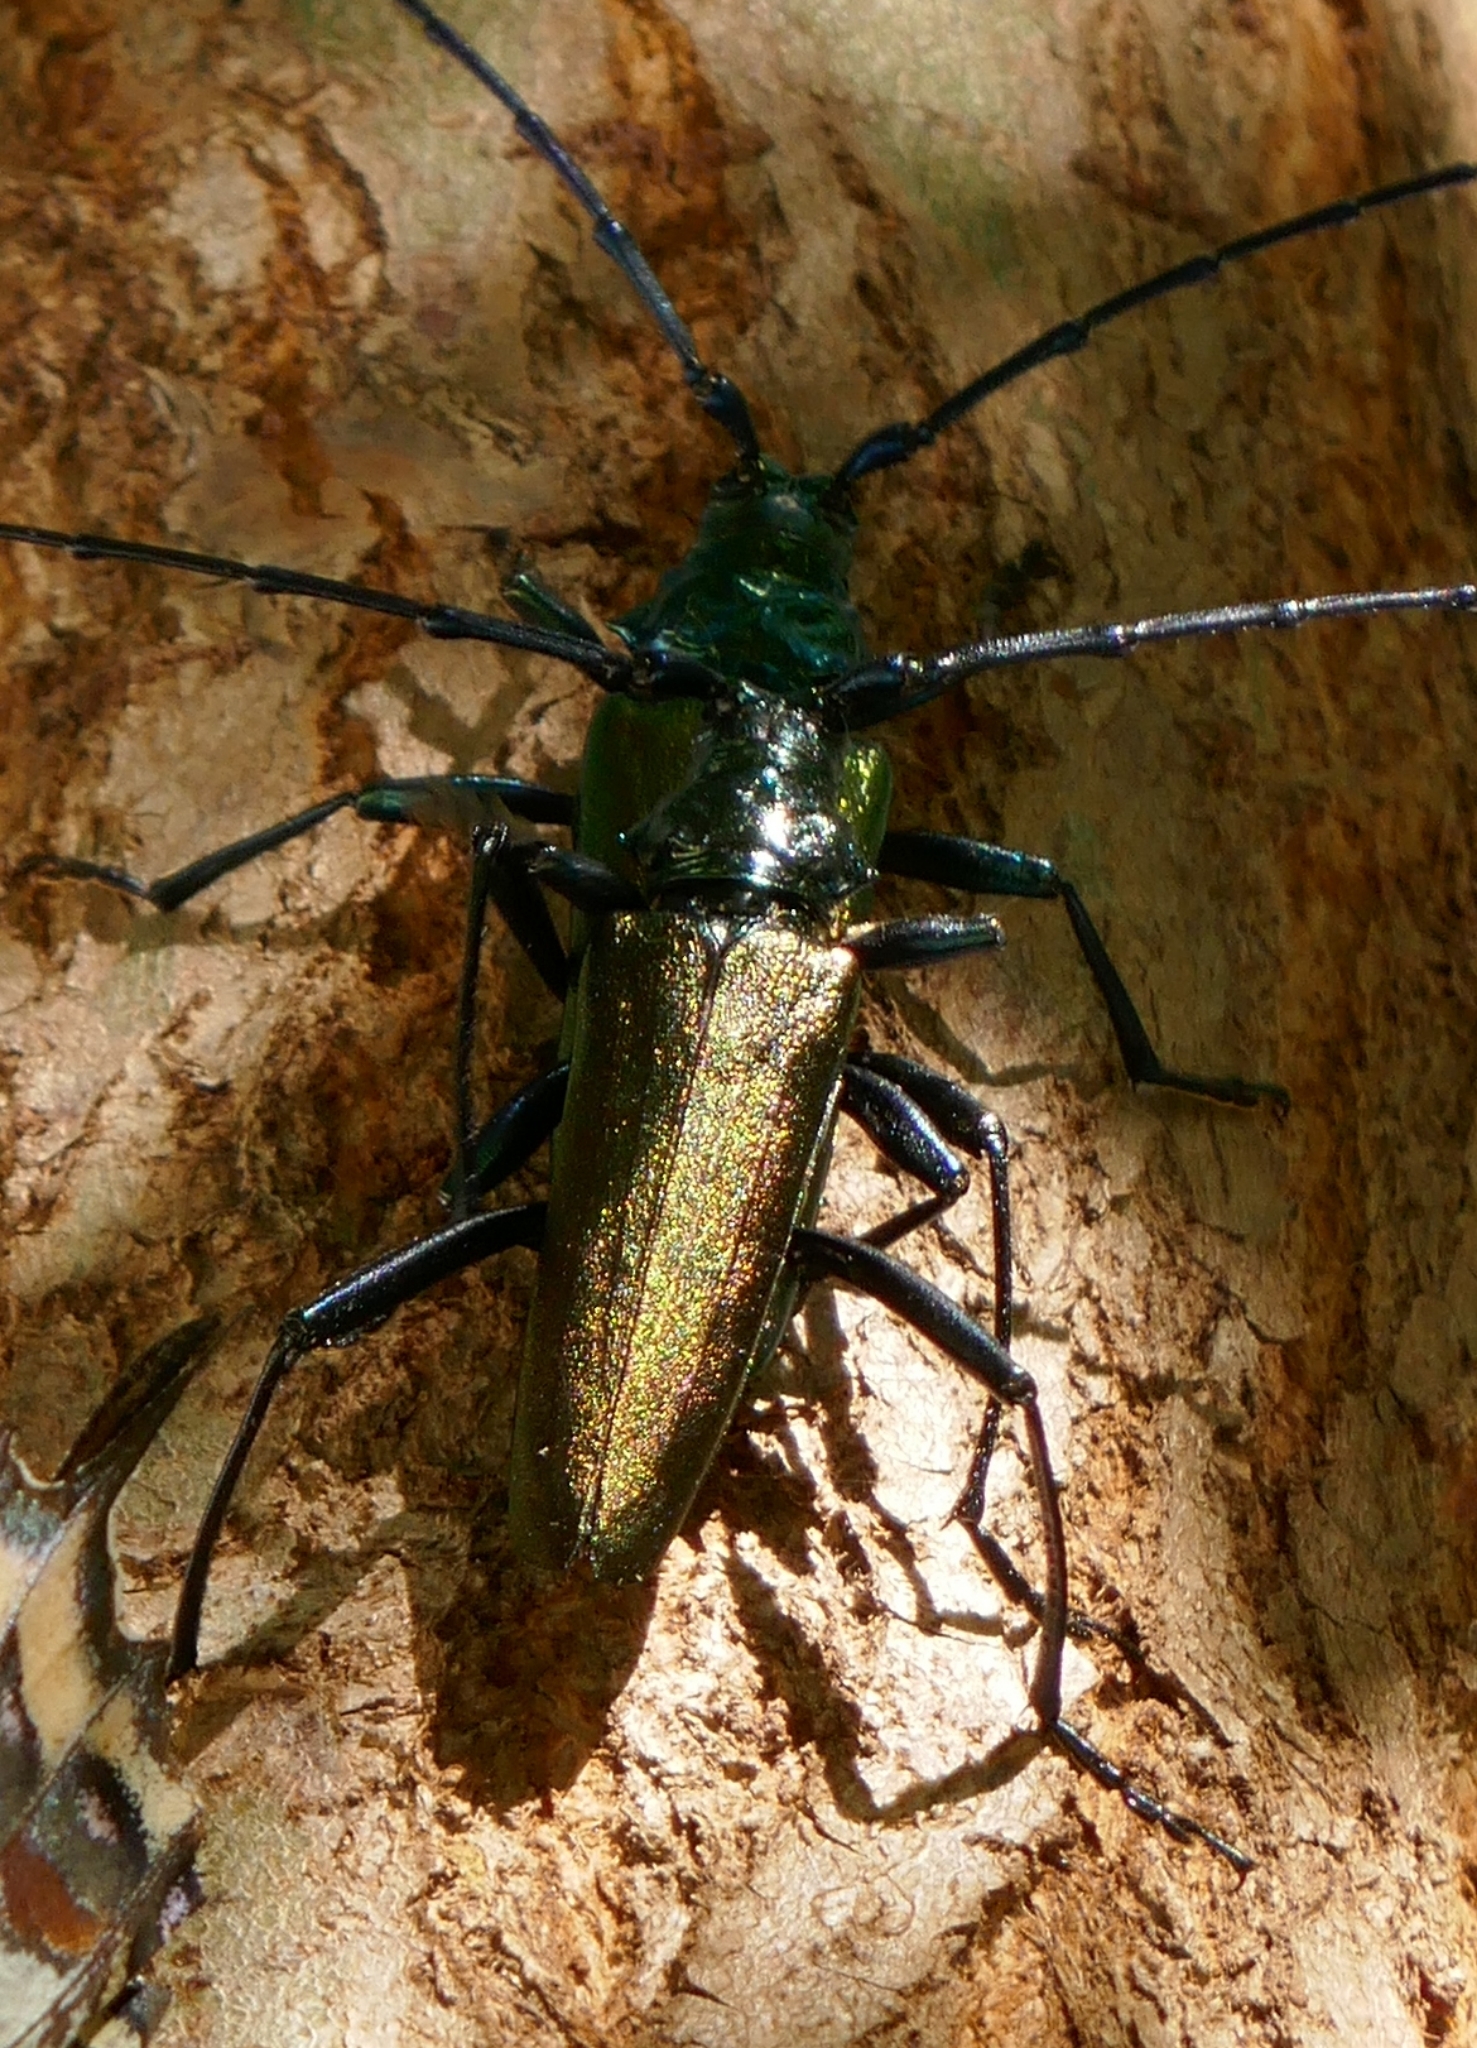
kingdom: Animalia
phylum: Arthropoda
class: Insecta
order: Coleoptera
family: Cerambycidae
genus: Aromia
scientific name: Aromia moschata
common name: Musk beetle
